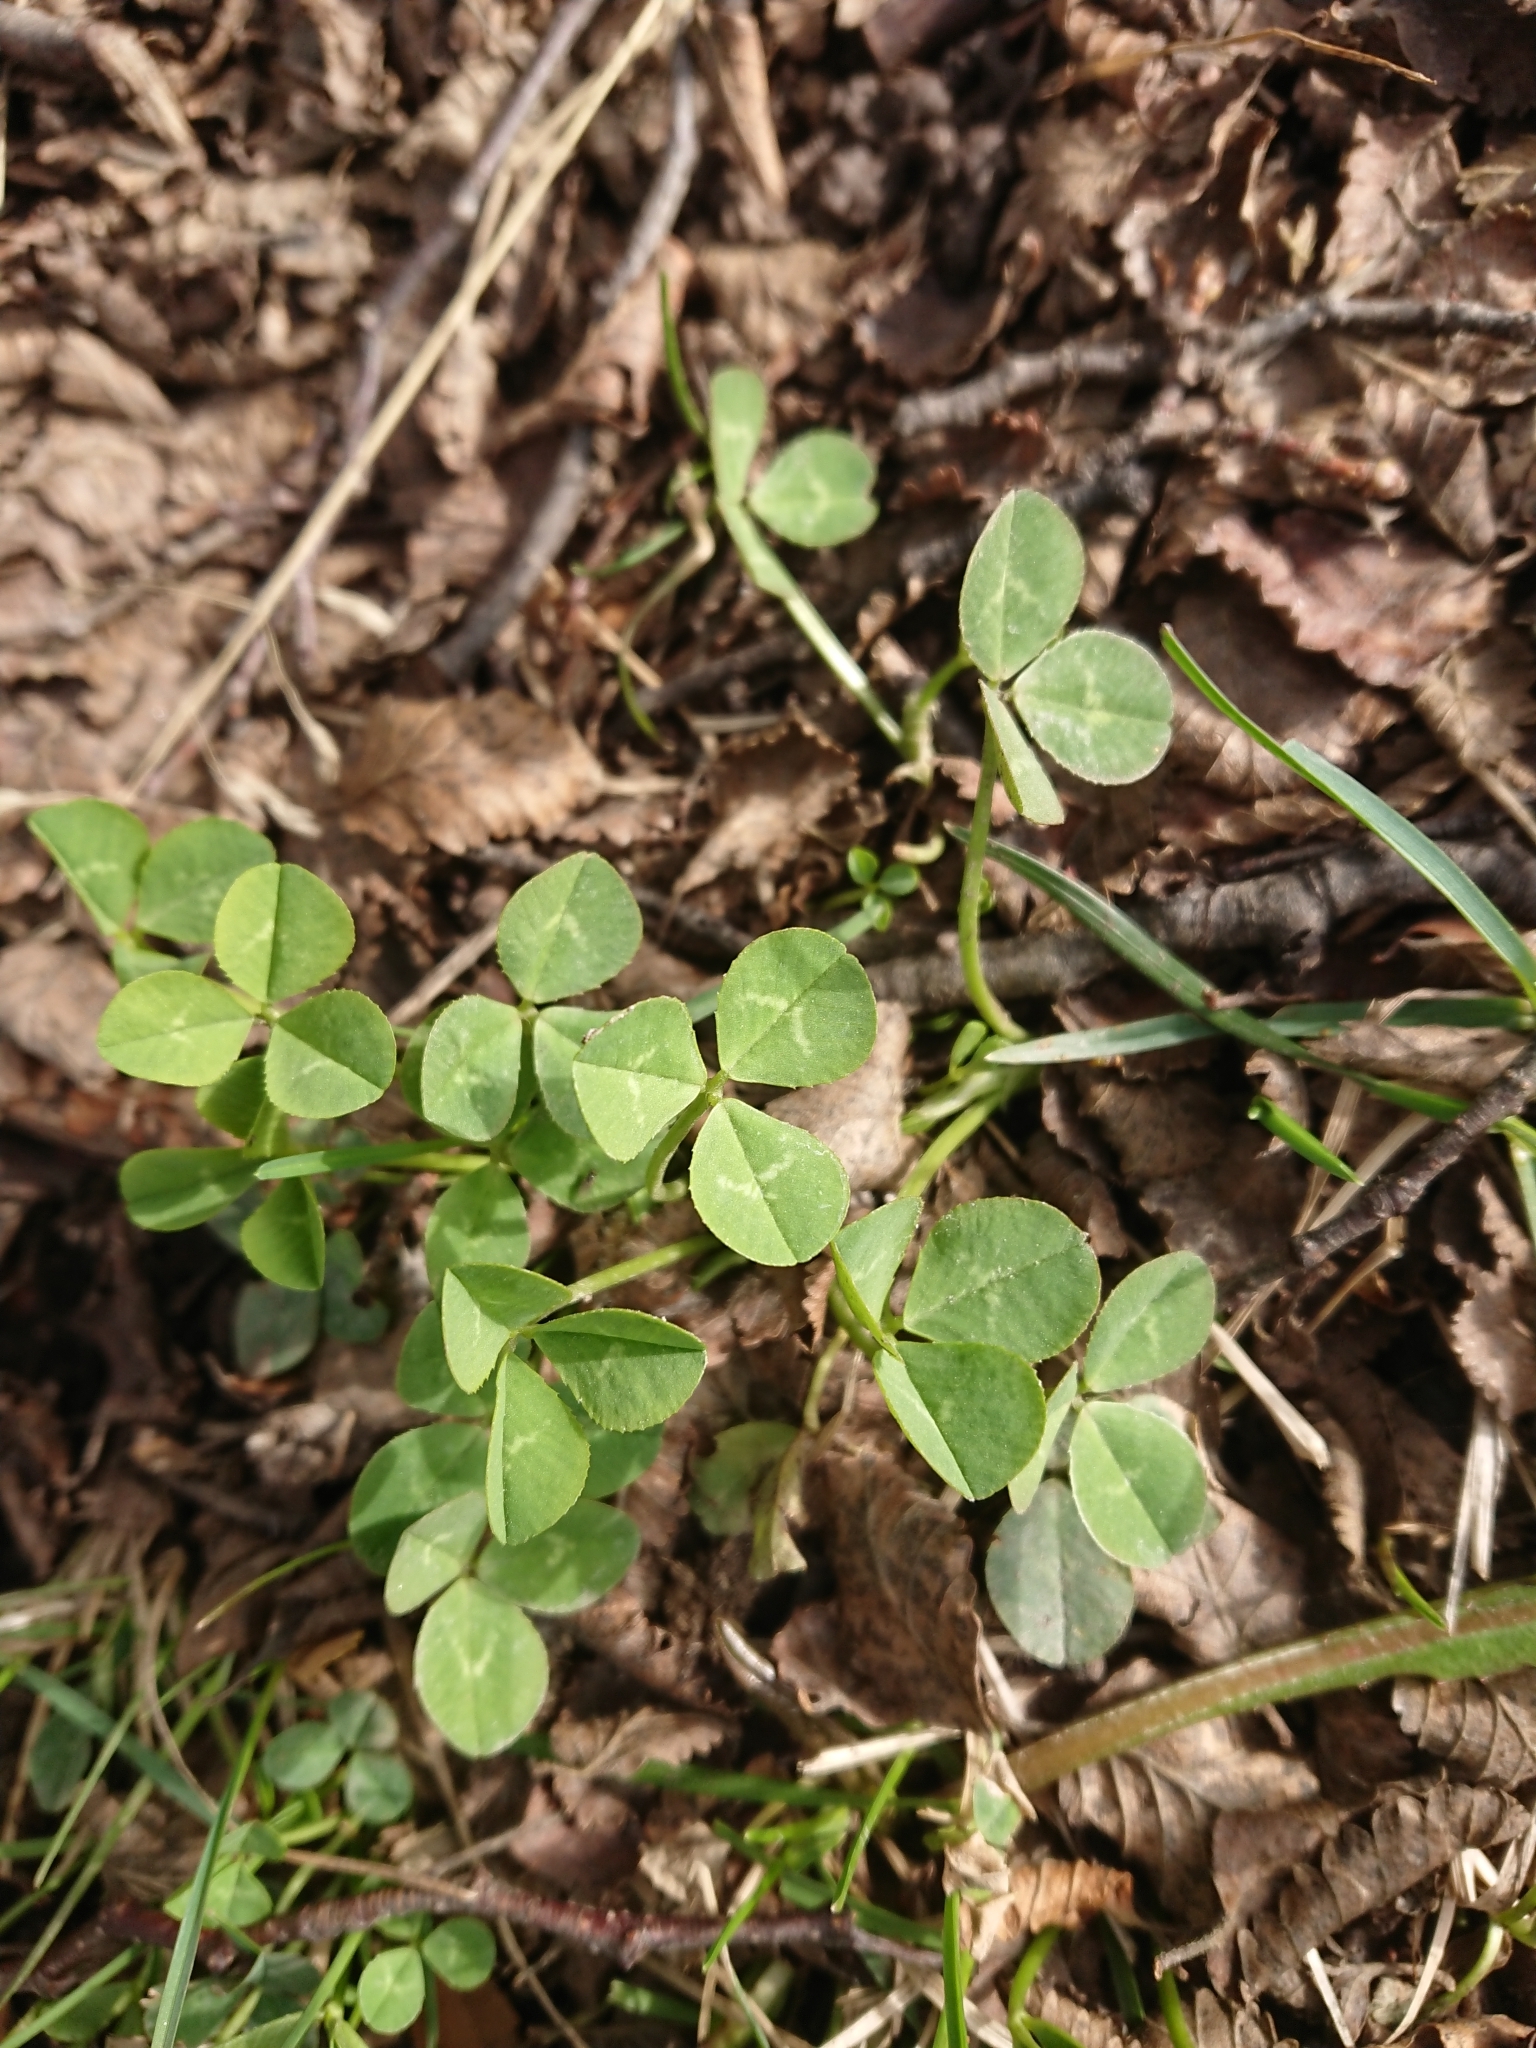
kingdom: Plantae
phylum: Tracheophyta
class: Magnoliopsida
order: Fabales
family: Fabaceae
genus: Trifolium
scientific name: Trifolium repens
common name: White clover
